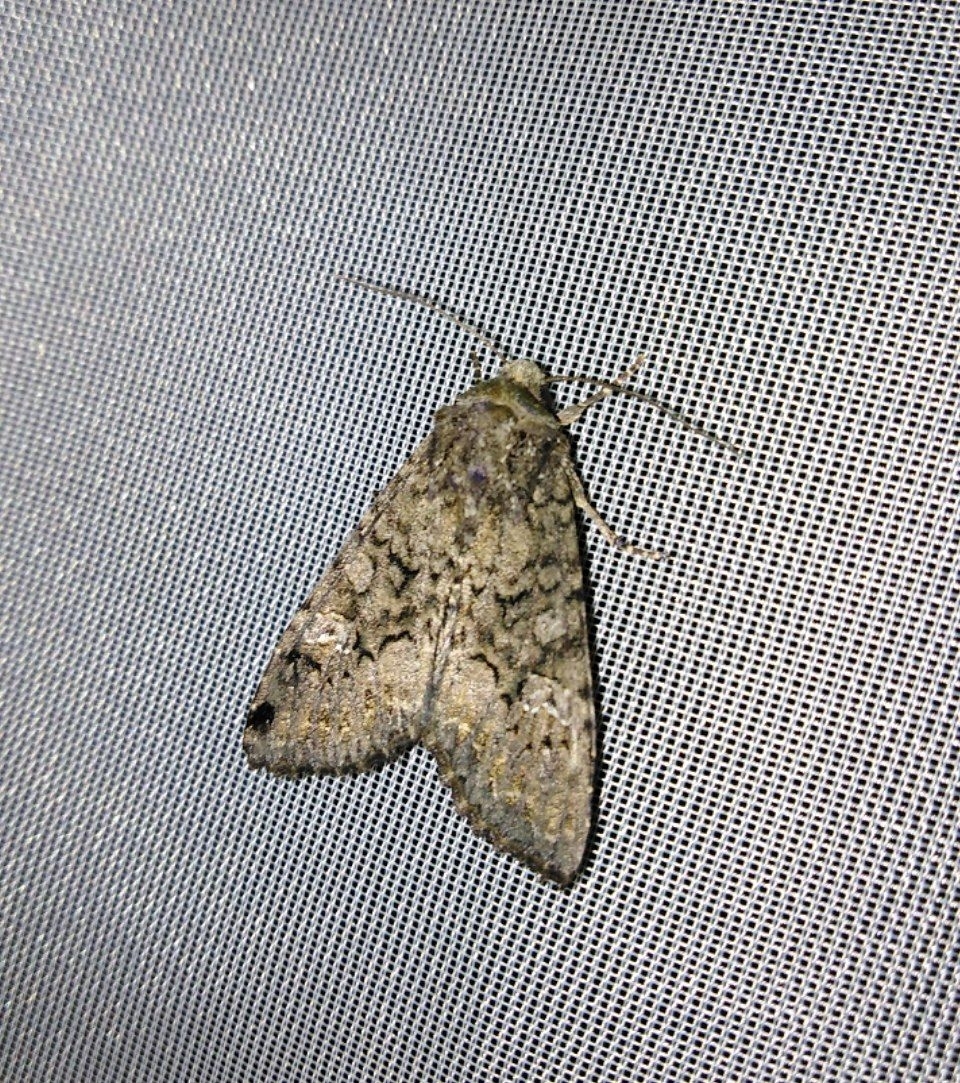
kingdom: Animalia
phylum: Arthropoda
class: Insecta
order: Lepidoptera
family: Noctuidae
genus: Eremohadena
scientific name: Eremohadena immunda
